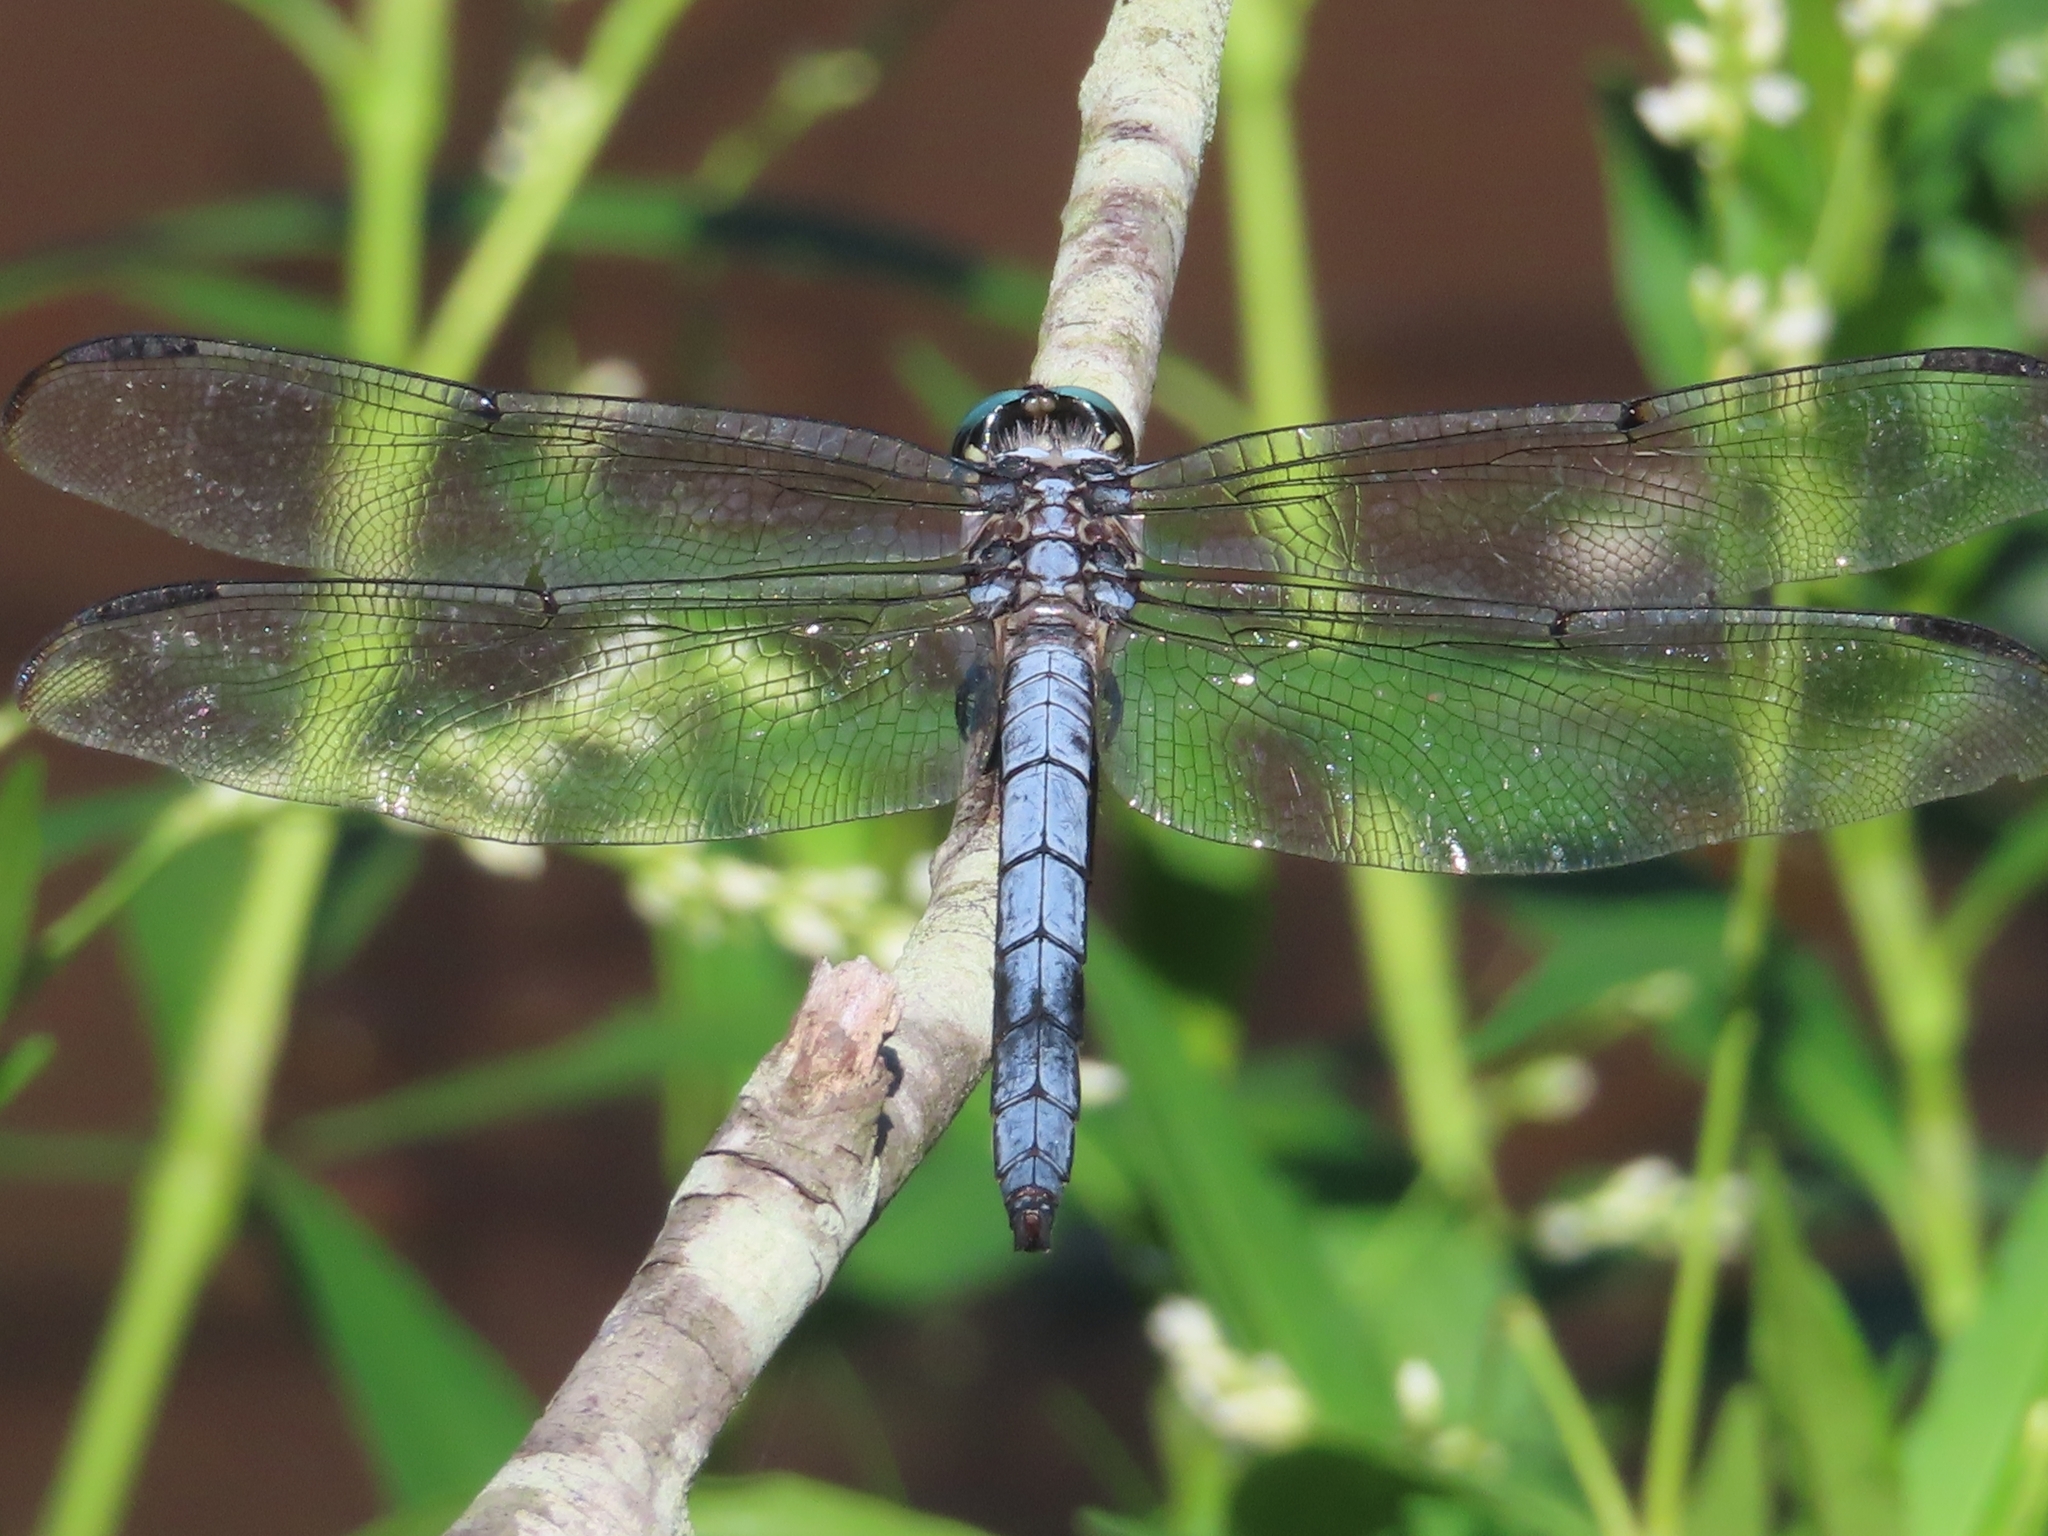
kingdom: Animalia
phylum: Arthropoda
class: Insecta
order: Odonata
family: Libellulidae
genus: Libellula
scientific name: Libellula vibrans
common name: Great blue skimmer
